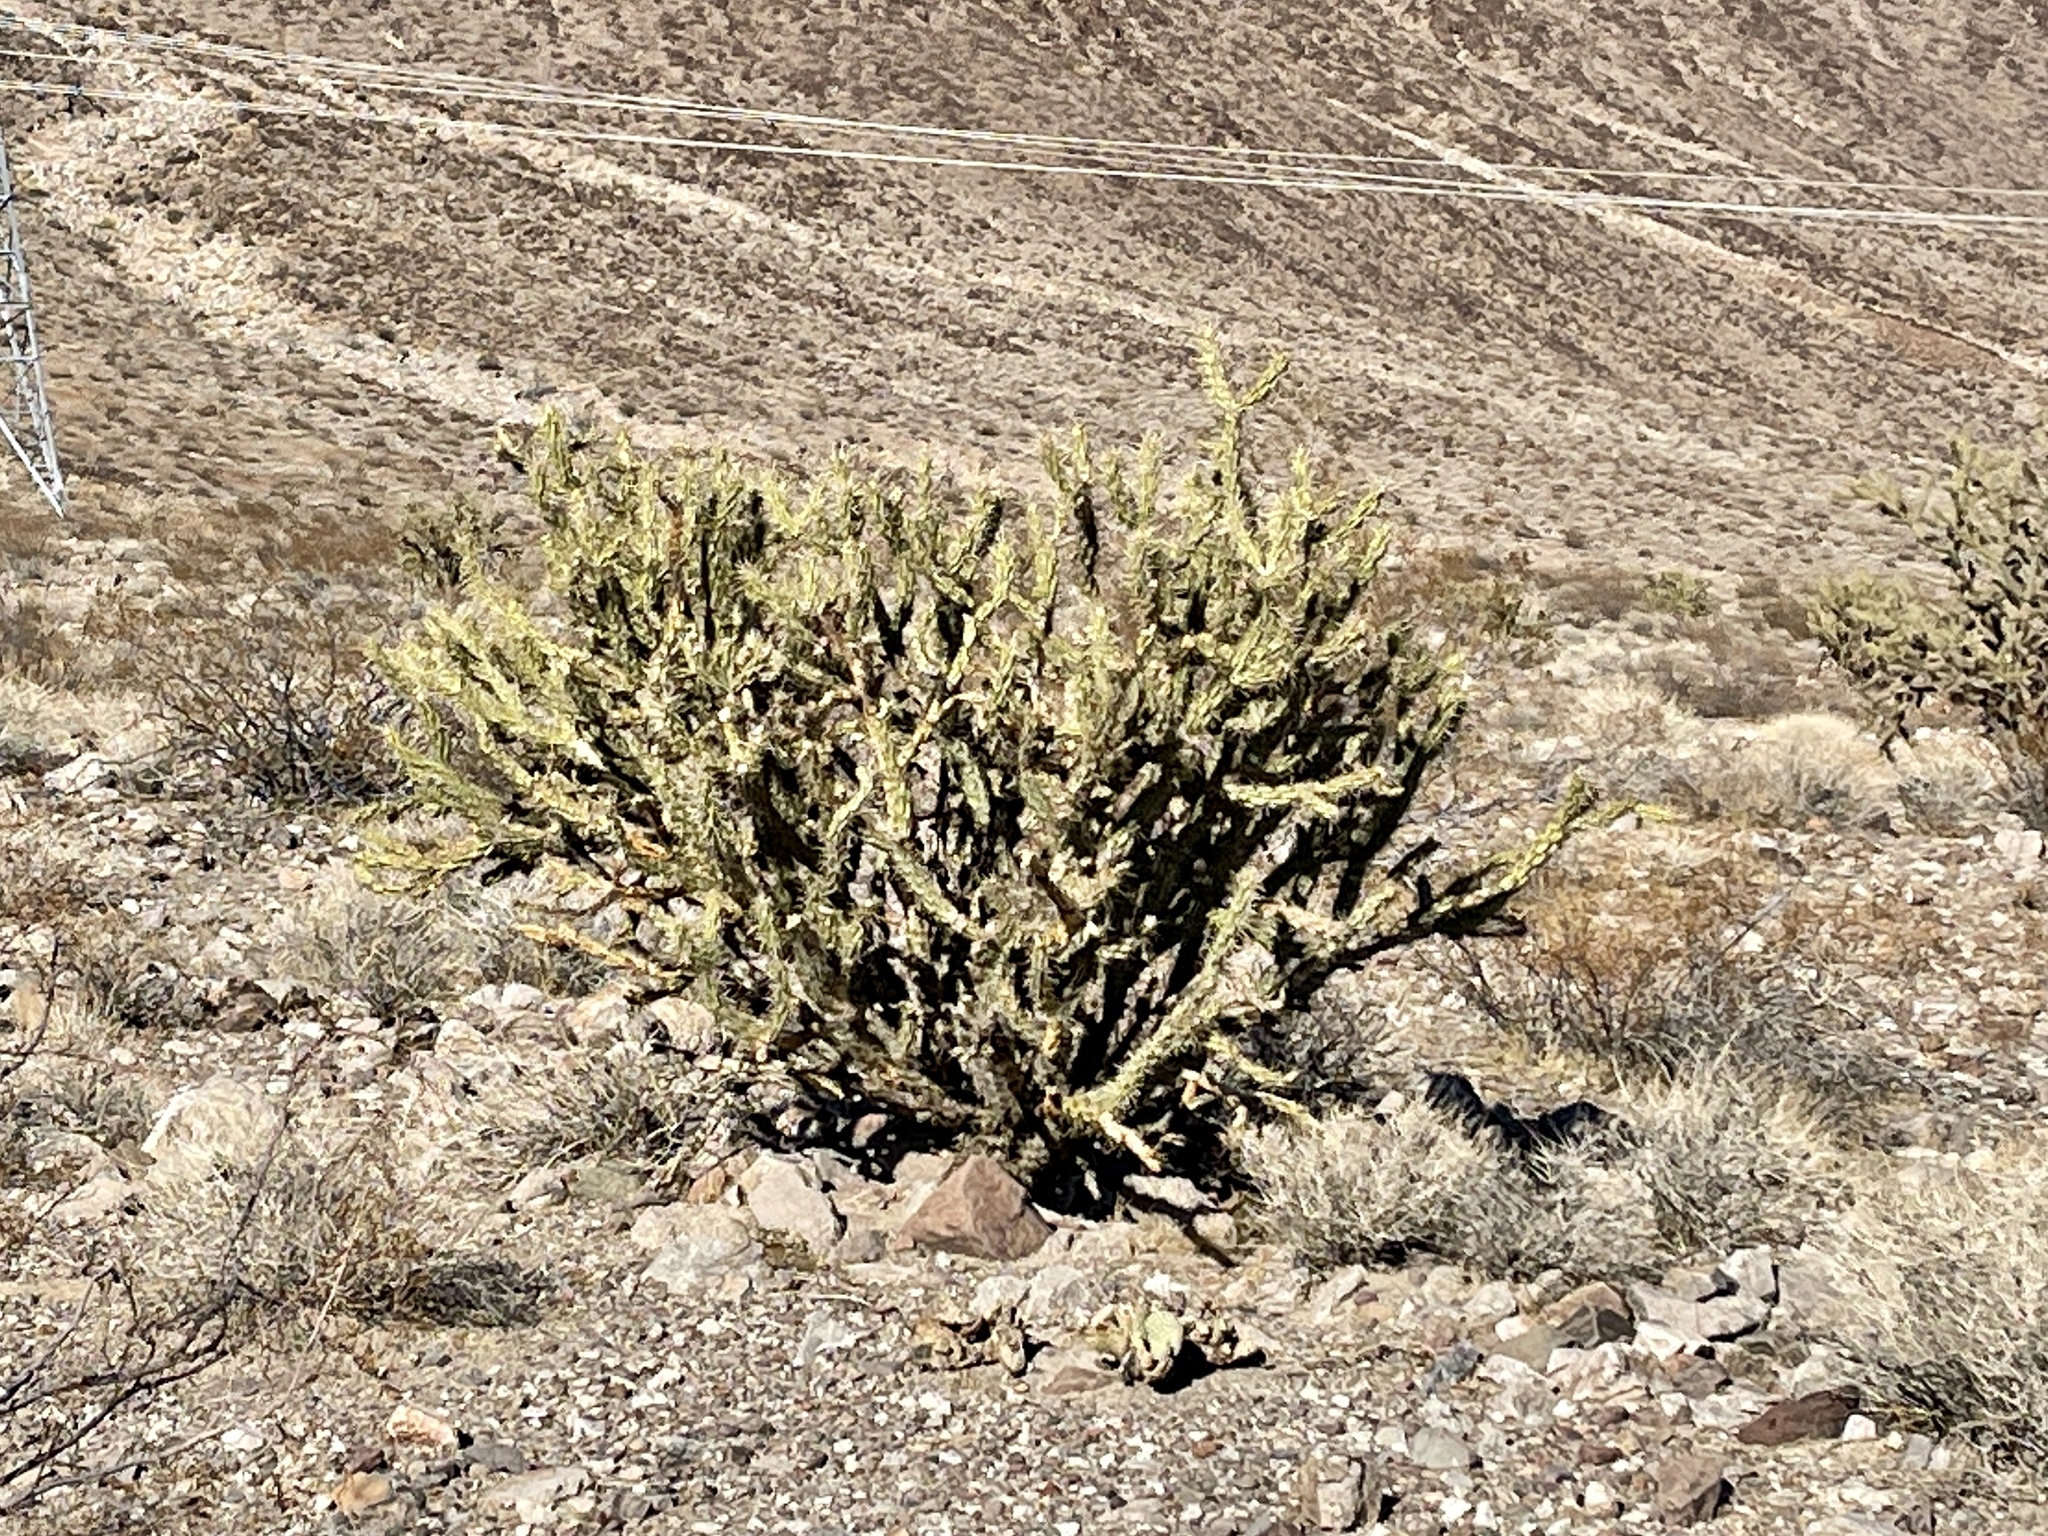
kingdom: Plantae
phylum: Tracheophyta
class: Magnoliopsida
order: Caryophyllales
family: Cactaceae
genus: Cylindropuntia
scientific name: Cylindropuntia acanthocarpa
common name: Buckhorn cholla
